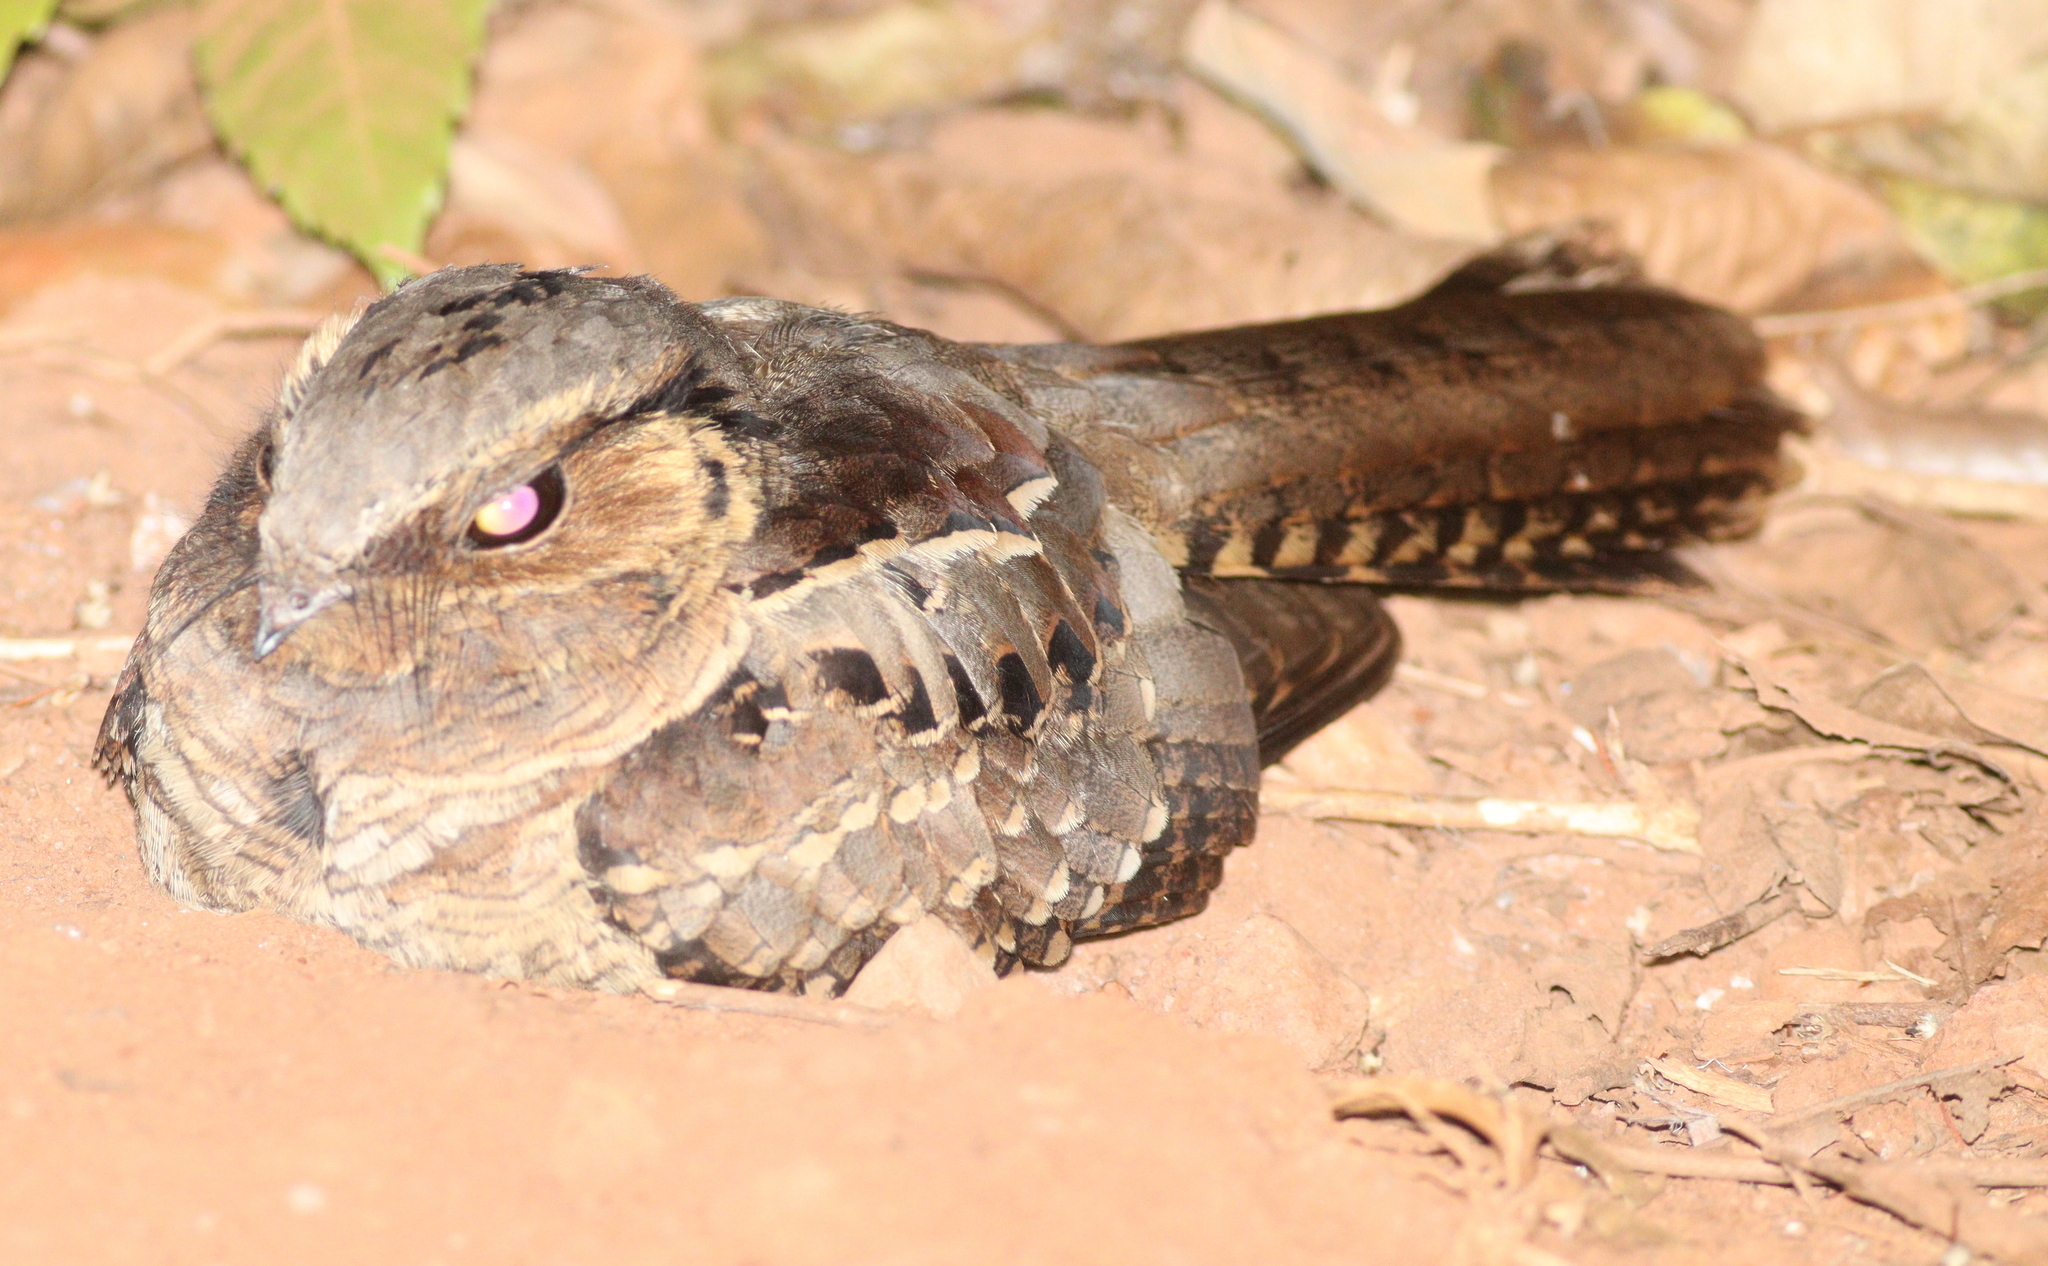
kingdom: Animalia
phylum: Chordata
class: Aves
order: Caprimulgiformes
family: Caprimulgidae
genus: Nyctidromus
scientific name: Nyctidromus albicollis
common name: Pauraque
